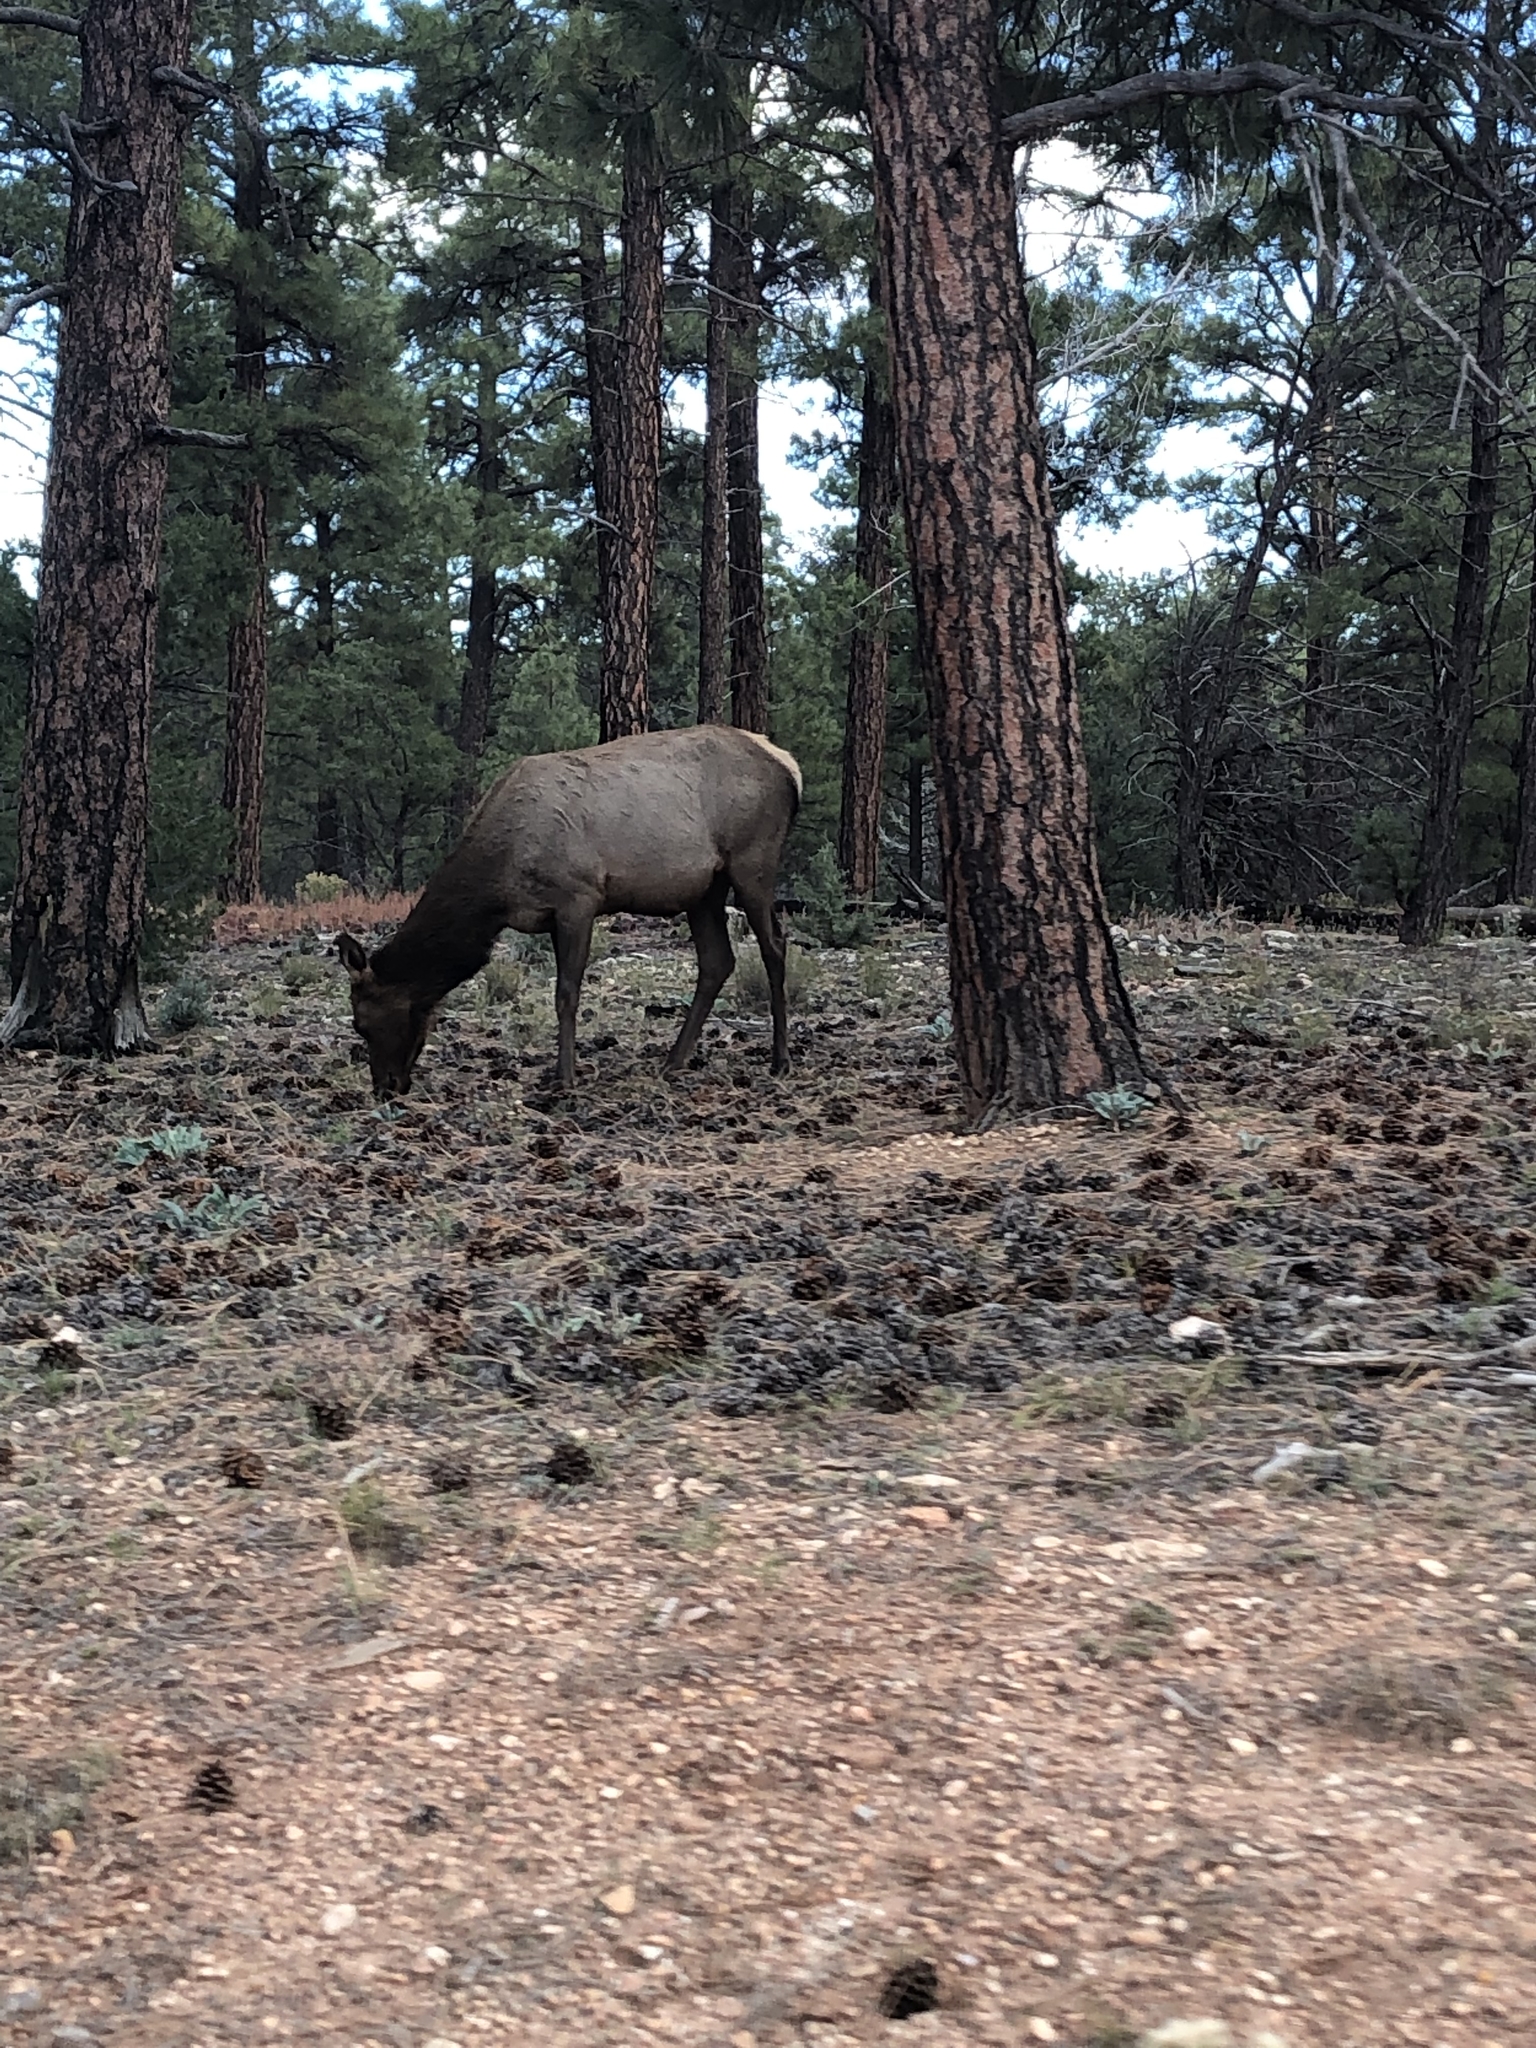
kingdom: Animalia
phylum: Chordata
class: Mammalia
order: Artiodactyla
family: Cervidae
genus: Cervus
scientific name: Cervus elaphus
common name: Red deer
